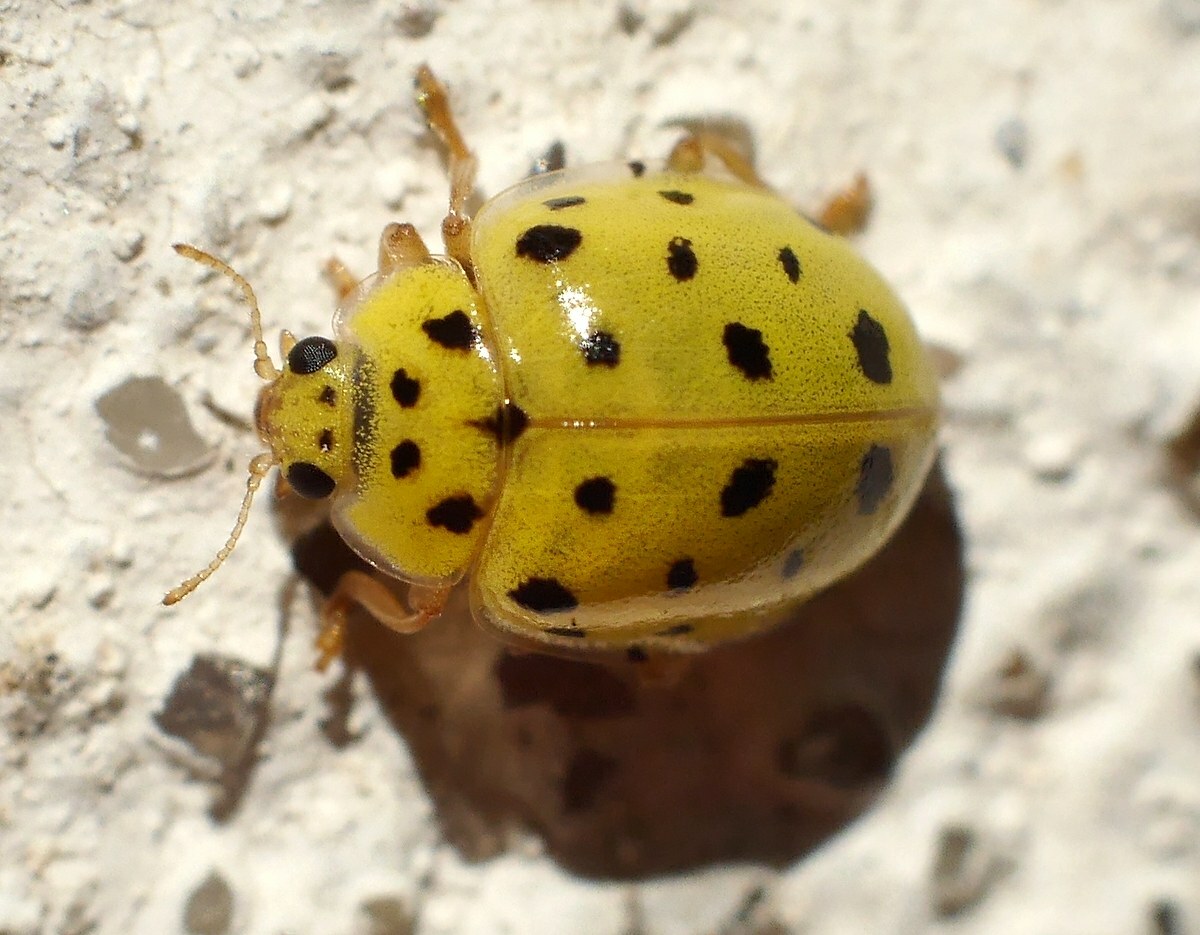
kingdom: Animalia
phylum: Arthropoda
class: Insecta
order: Coleoptera
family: Coccinellidae
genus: Psyllobora
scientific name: Psyllobora vigintiduopunctata
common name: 22-spot ladybird
